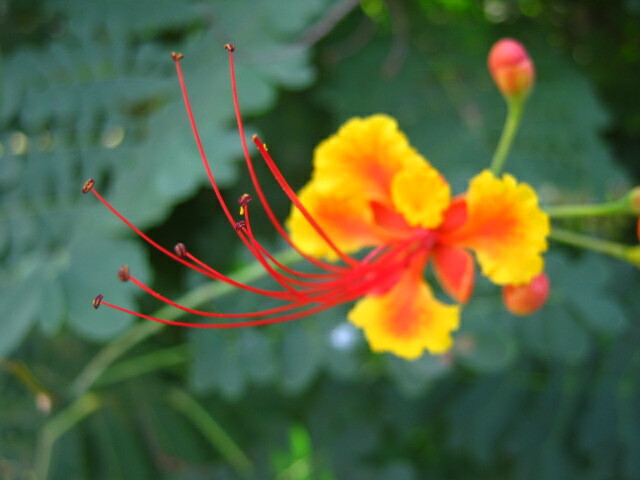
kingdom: Plantae
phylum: Tracheophyta
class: Magnoliopsida
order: Fabales
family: Fabaceae
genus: Caesalpinia
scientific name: Caesalpinia pulcherrima
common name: Pride-of-barbados
